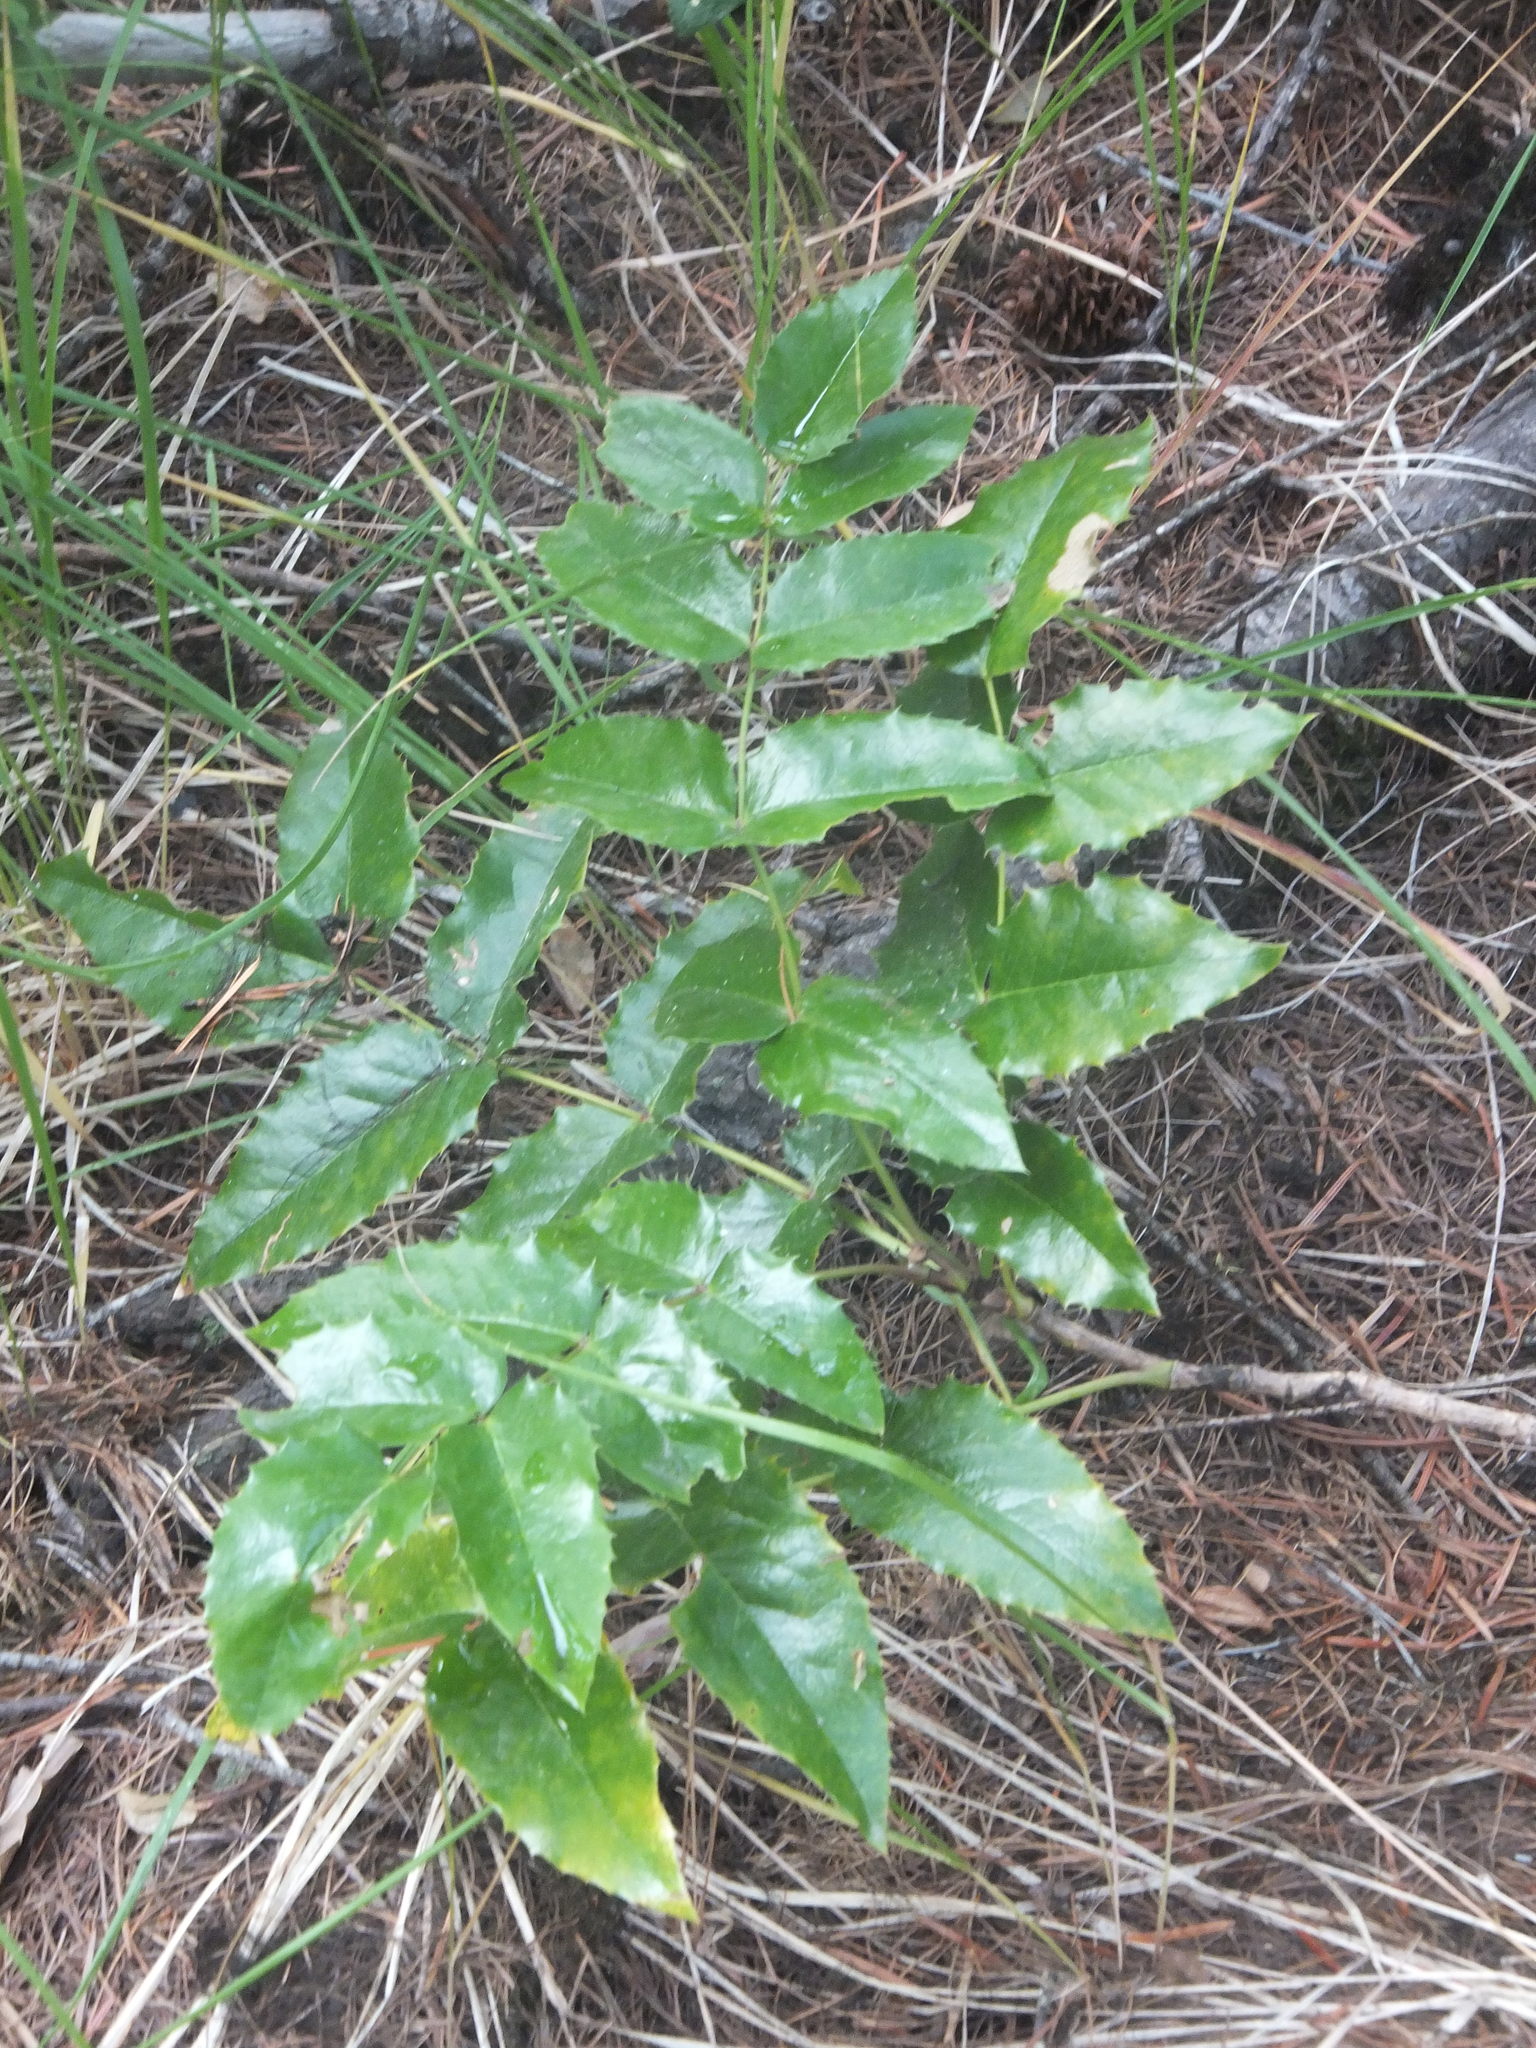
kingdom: Plantae
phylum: Tracheophyta
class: Magnoliopsida
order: Ranunculales
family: Berberidaceae
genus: Mahonia
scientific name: Mahonia aquifolium
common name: Oregon-grape
